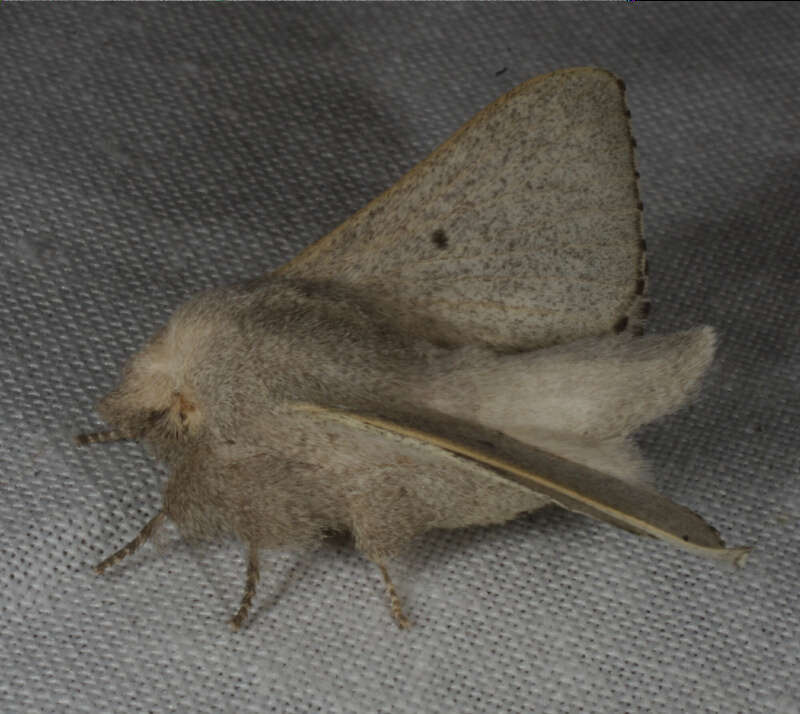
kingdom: Animalia
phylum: Arthropoda
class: Insecta
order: Lepidoptera
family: Lasiocampidae
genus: Symphyta
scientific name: Symphyta psaropis
